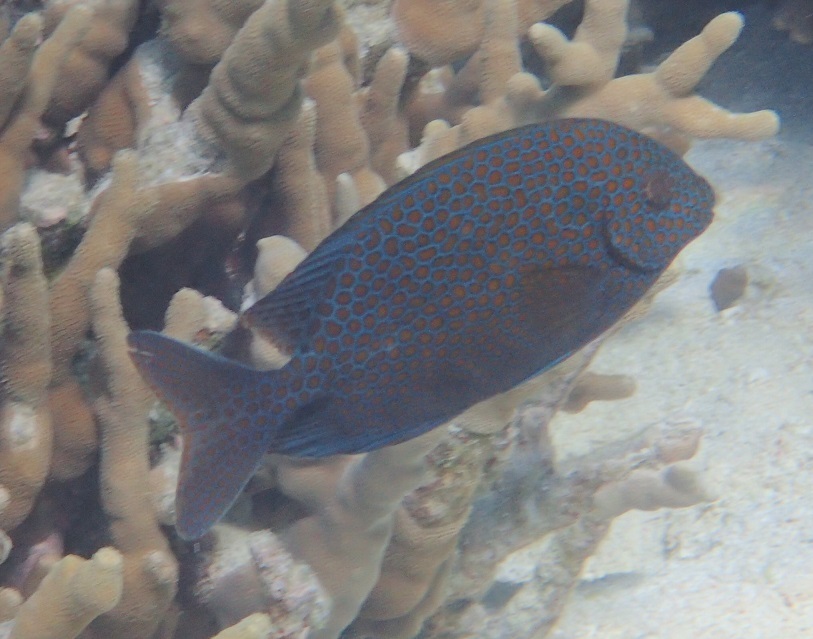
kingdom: Animalia
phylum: Chordata
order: Perciformes
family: Siganidae
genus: Siganus
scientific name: Siganus punctatus
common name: Gold-spotted rabbitfish
